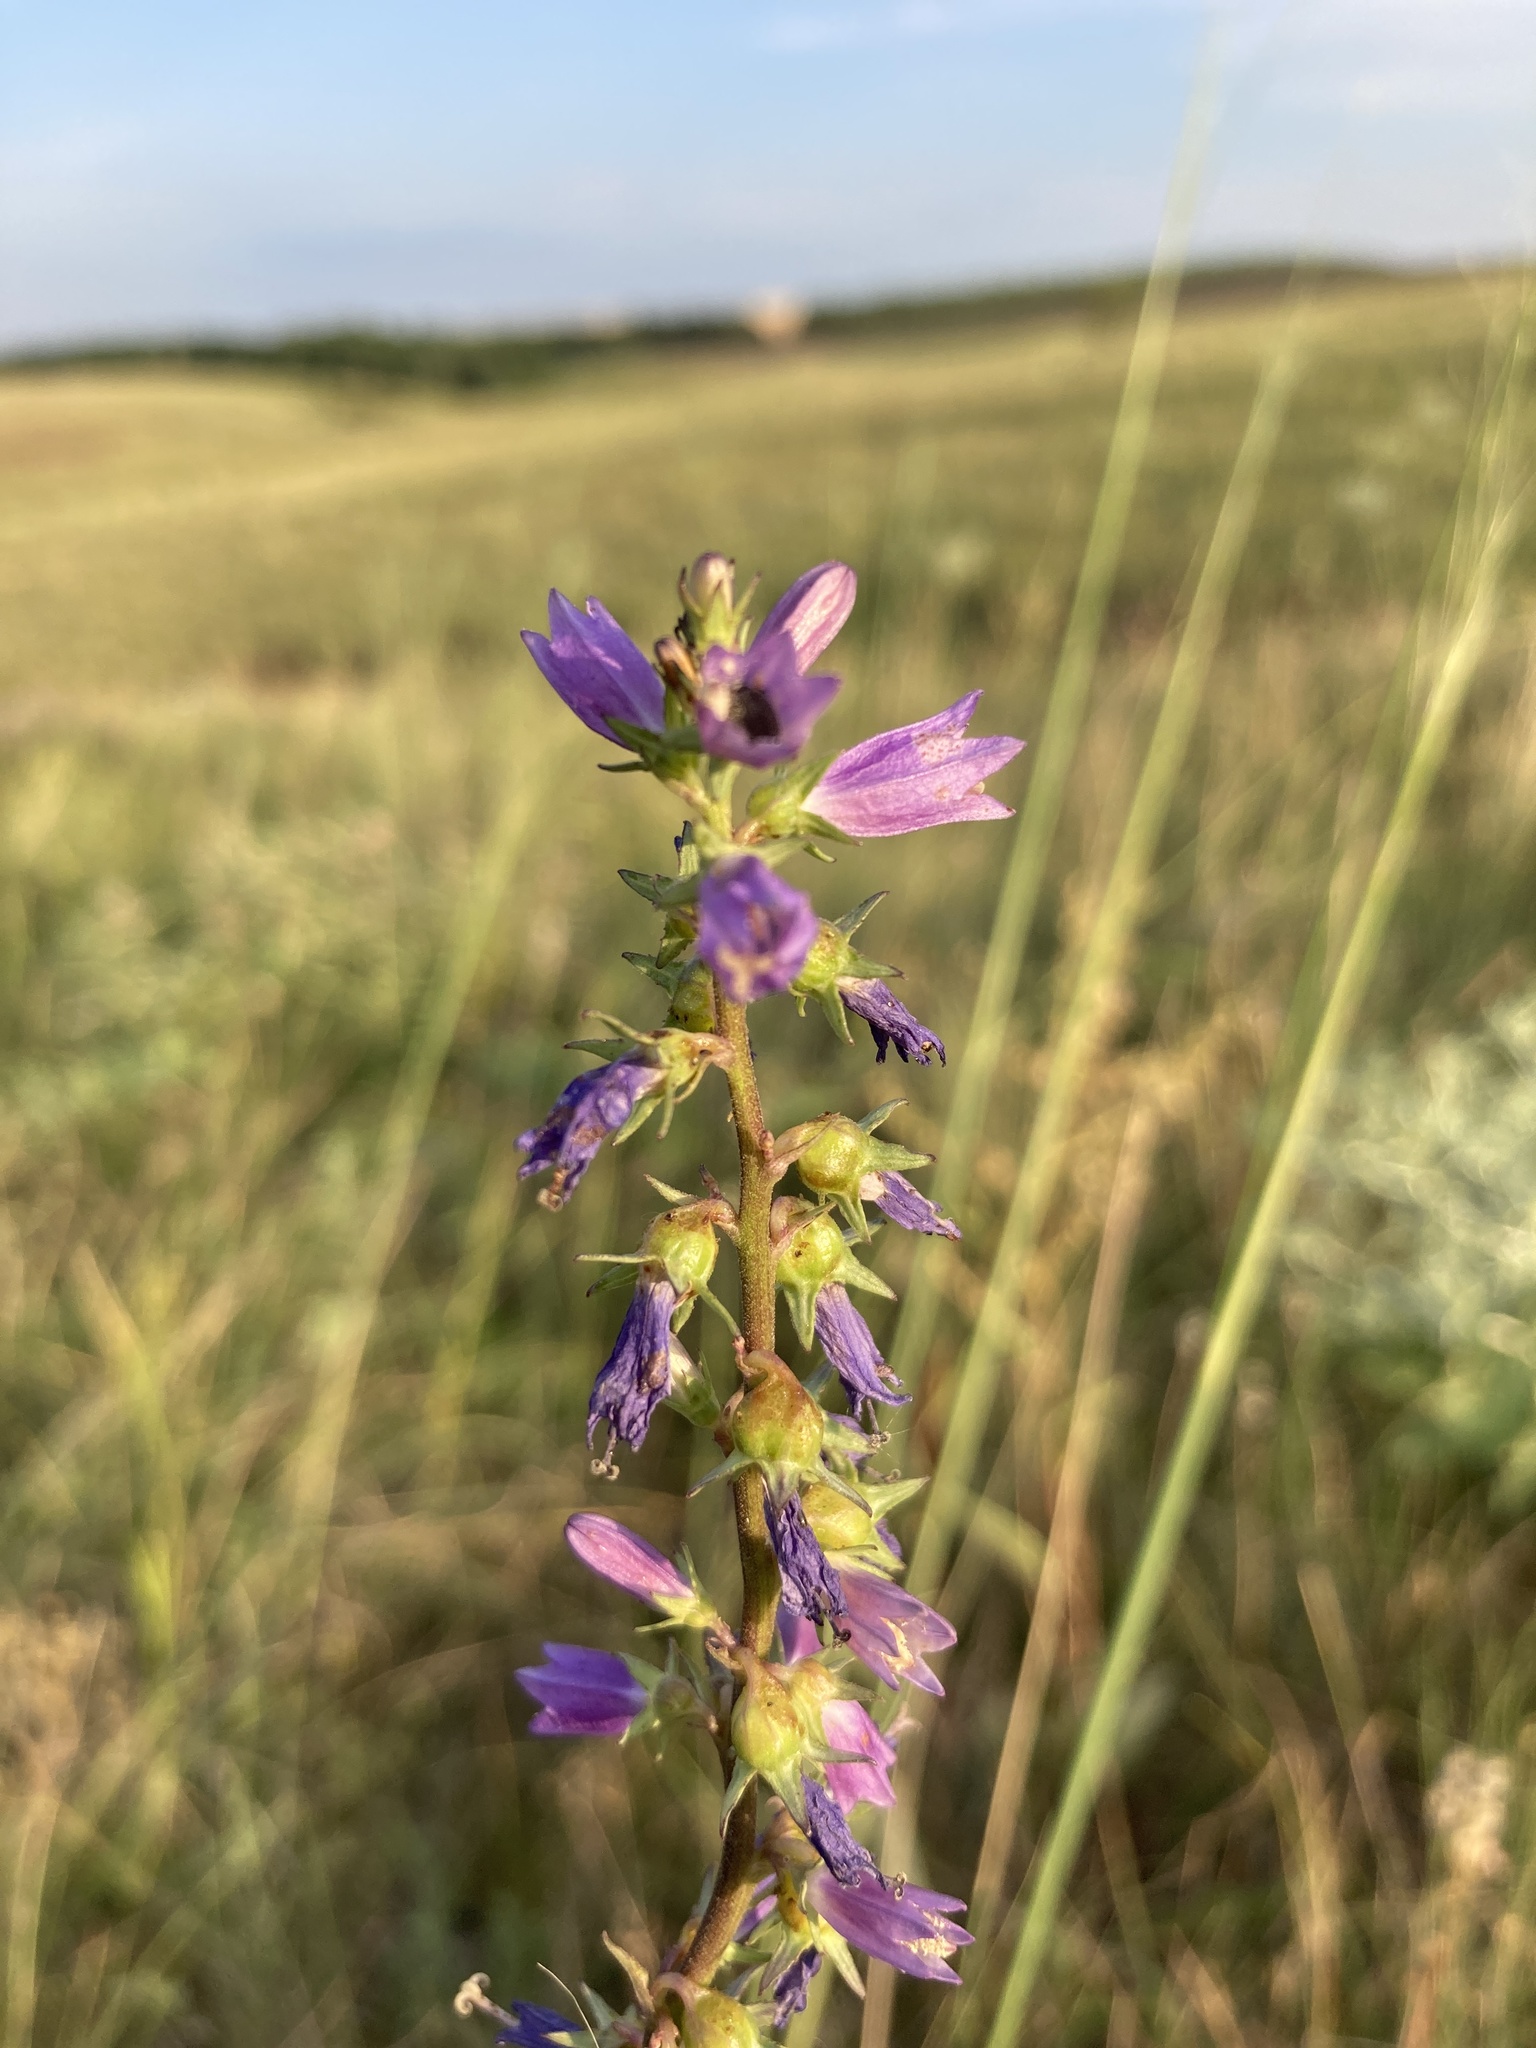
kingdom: Plantae
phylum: Tracheophyta
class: Magnoliopsida
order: Asterales
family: Campanulaceae
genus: Campanula
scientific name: Campanula bononiensis
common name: Pale bellflower
